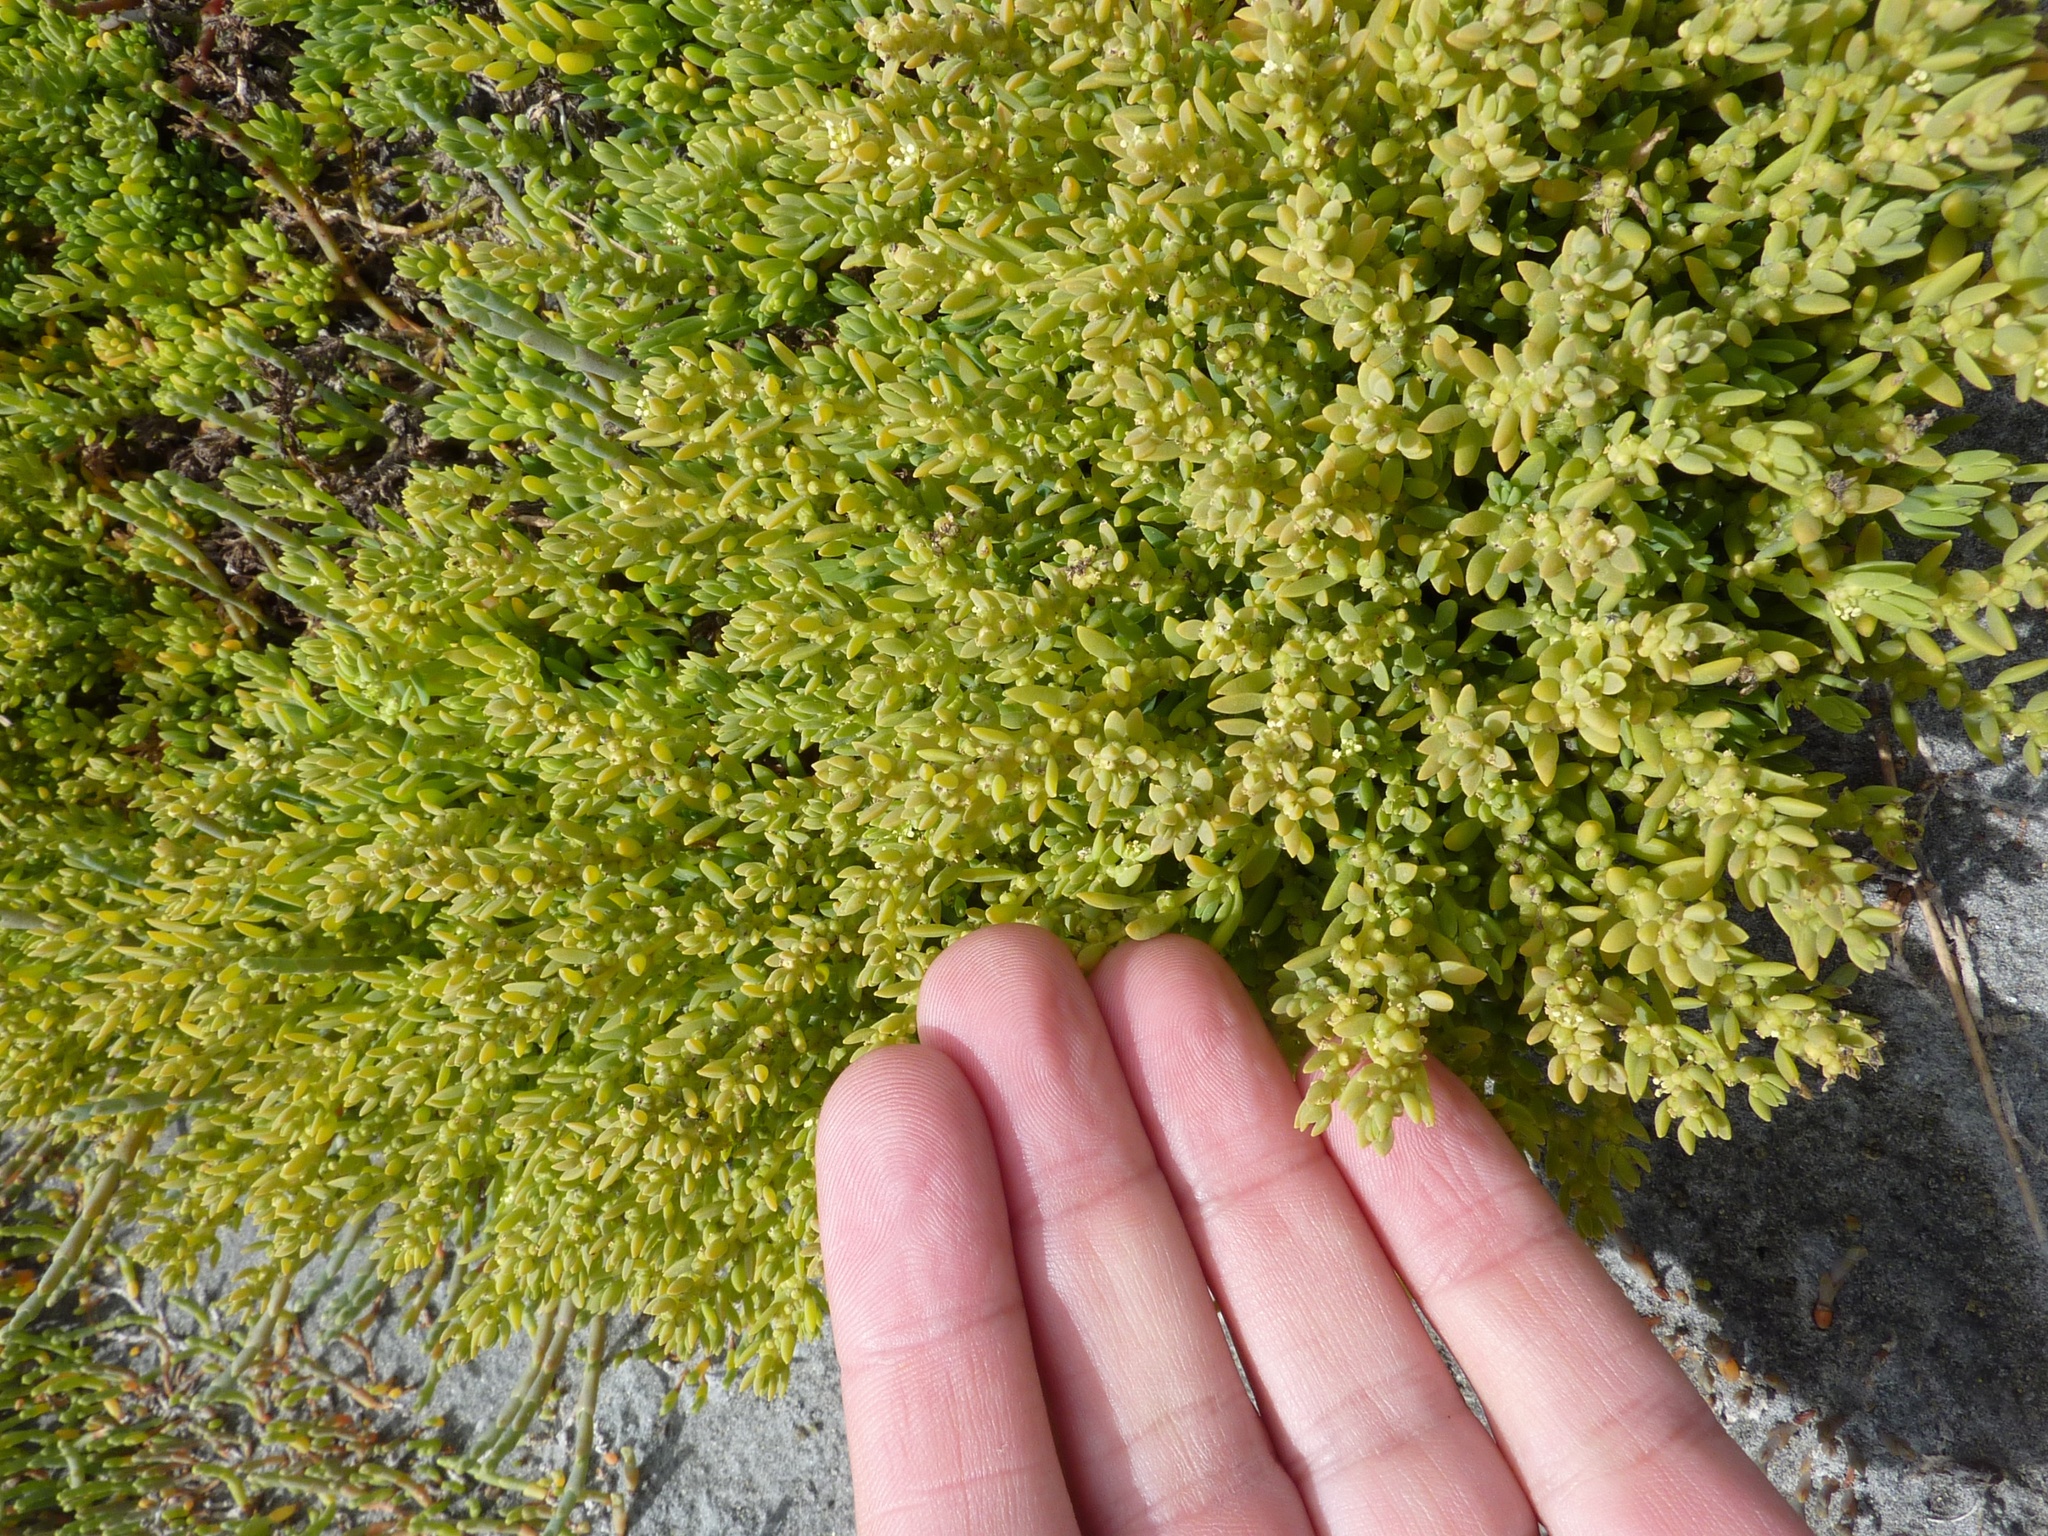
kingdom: Plantae
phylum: Tracheophyta
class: Magnoliopsida
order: Caryophyllales
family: Amaranthaceae
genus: Suaeda
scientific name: Suaeda novae-zelandiae
